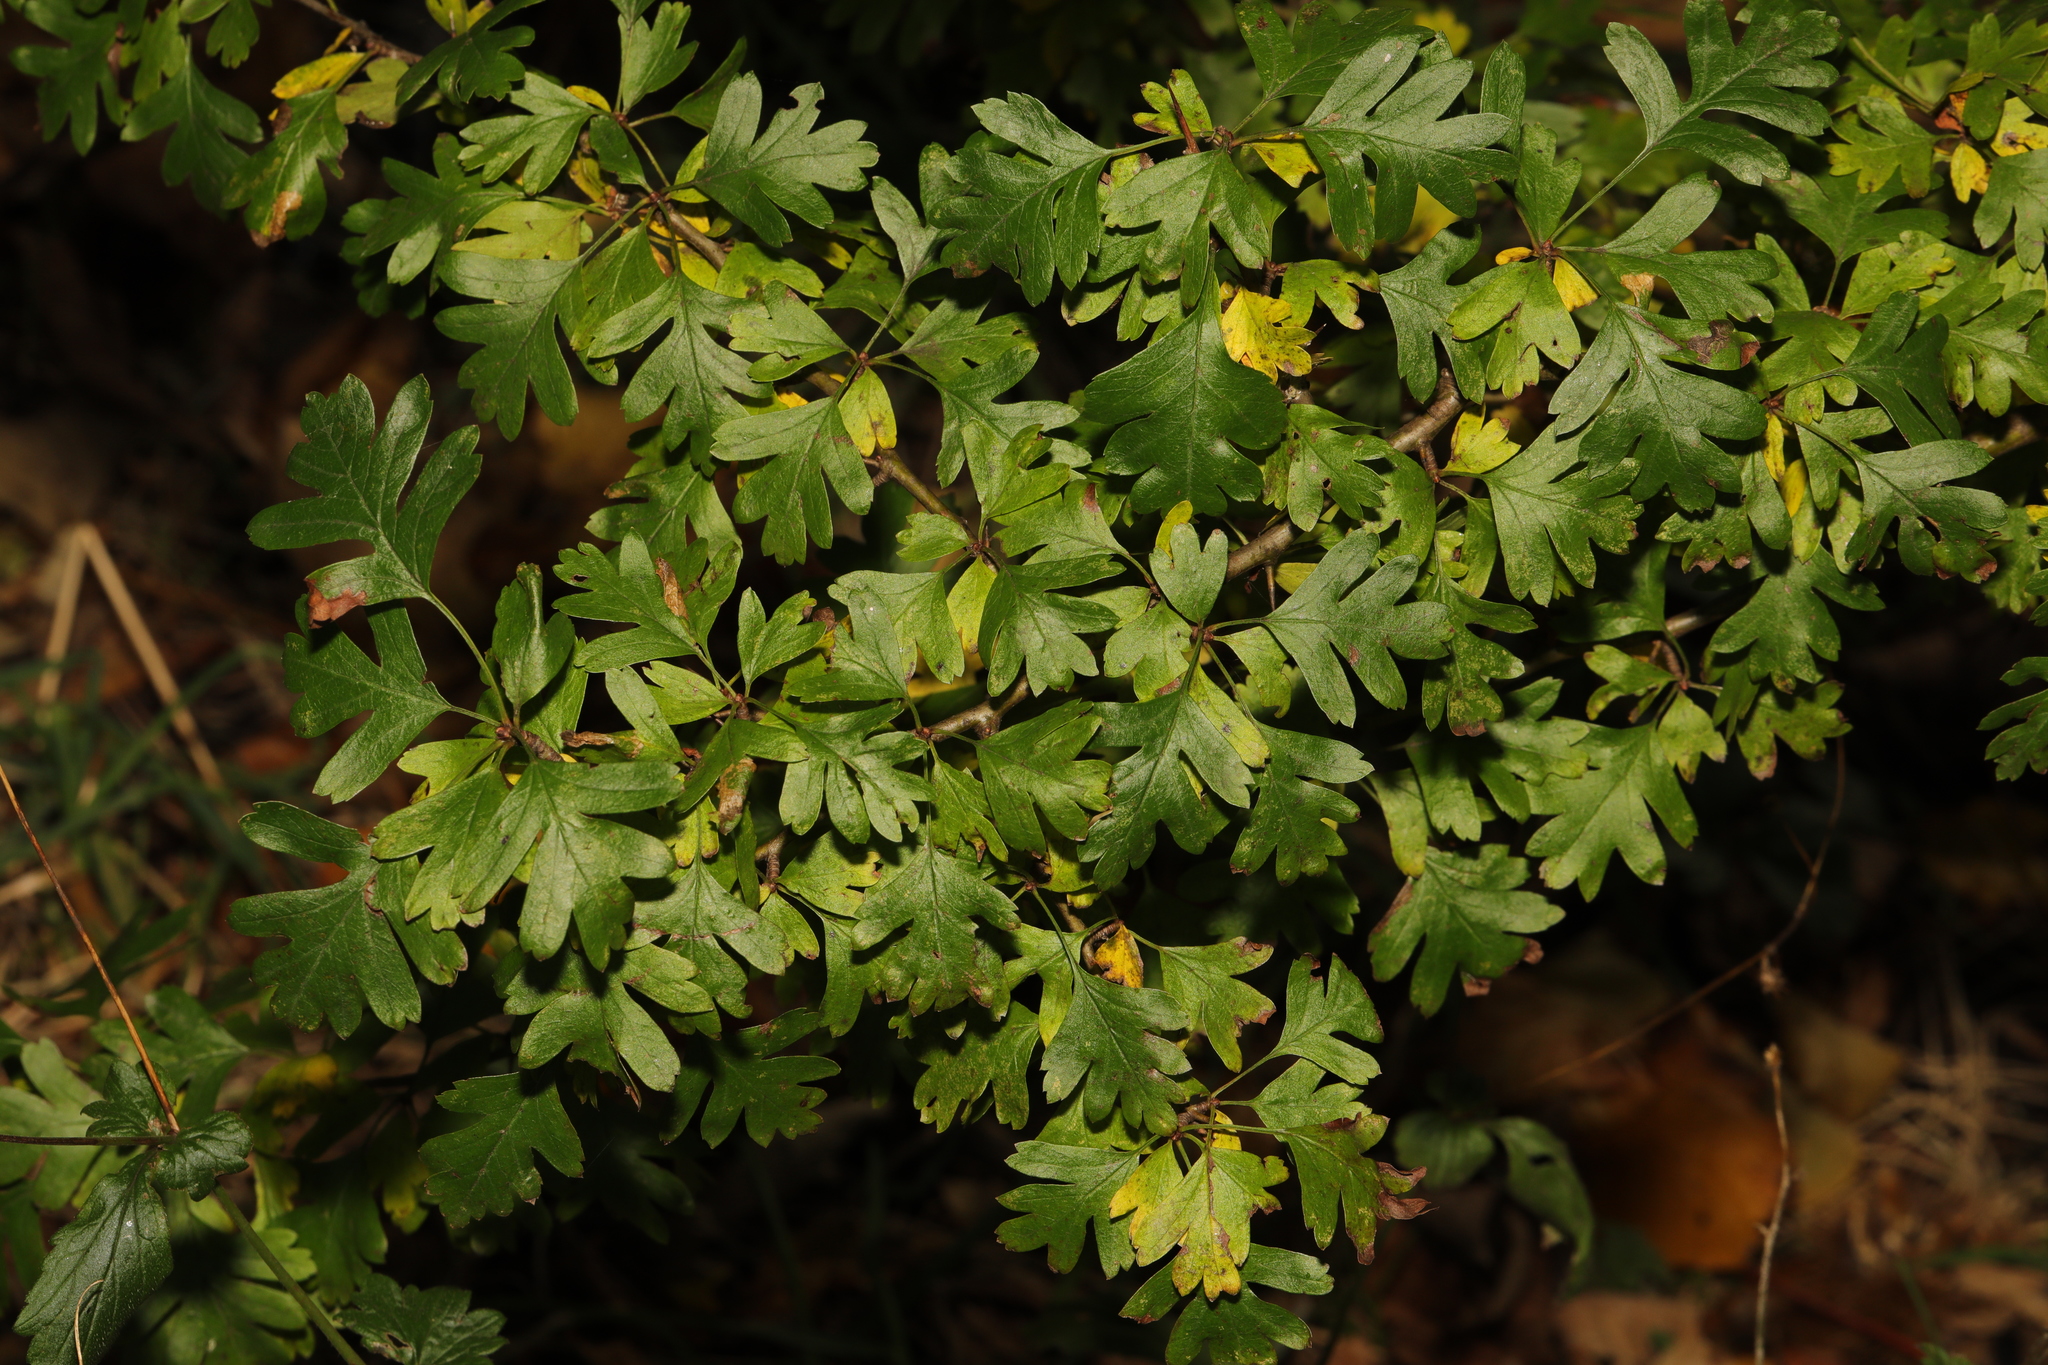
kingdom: Plantae
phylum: Tracheophyta
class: Magnoliopsida
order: Rosales
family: Rosaceae
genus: Crataegus
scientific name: Crataegus monogyna
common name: Hawthorn
